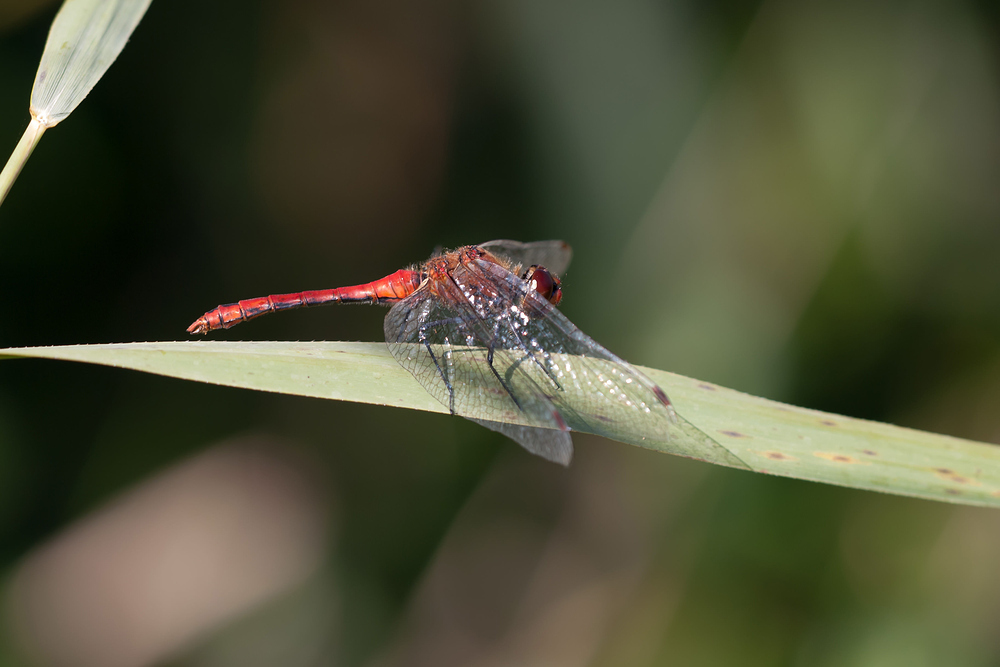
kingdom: Animalia
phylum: Arthropoda
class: Insecta
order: Odonata
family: Libellulidae
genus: Sympetrum
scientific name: Sympetrum sanguineum
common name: Ruddy darter
